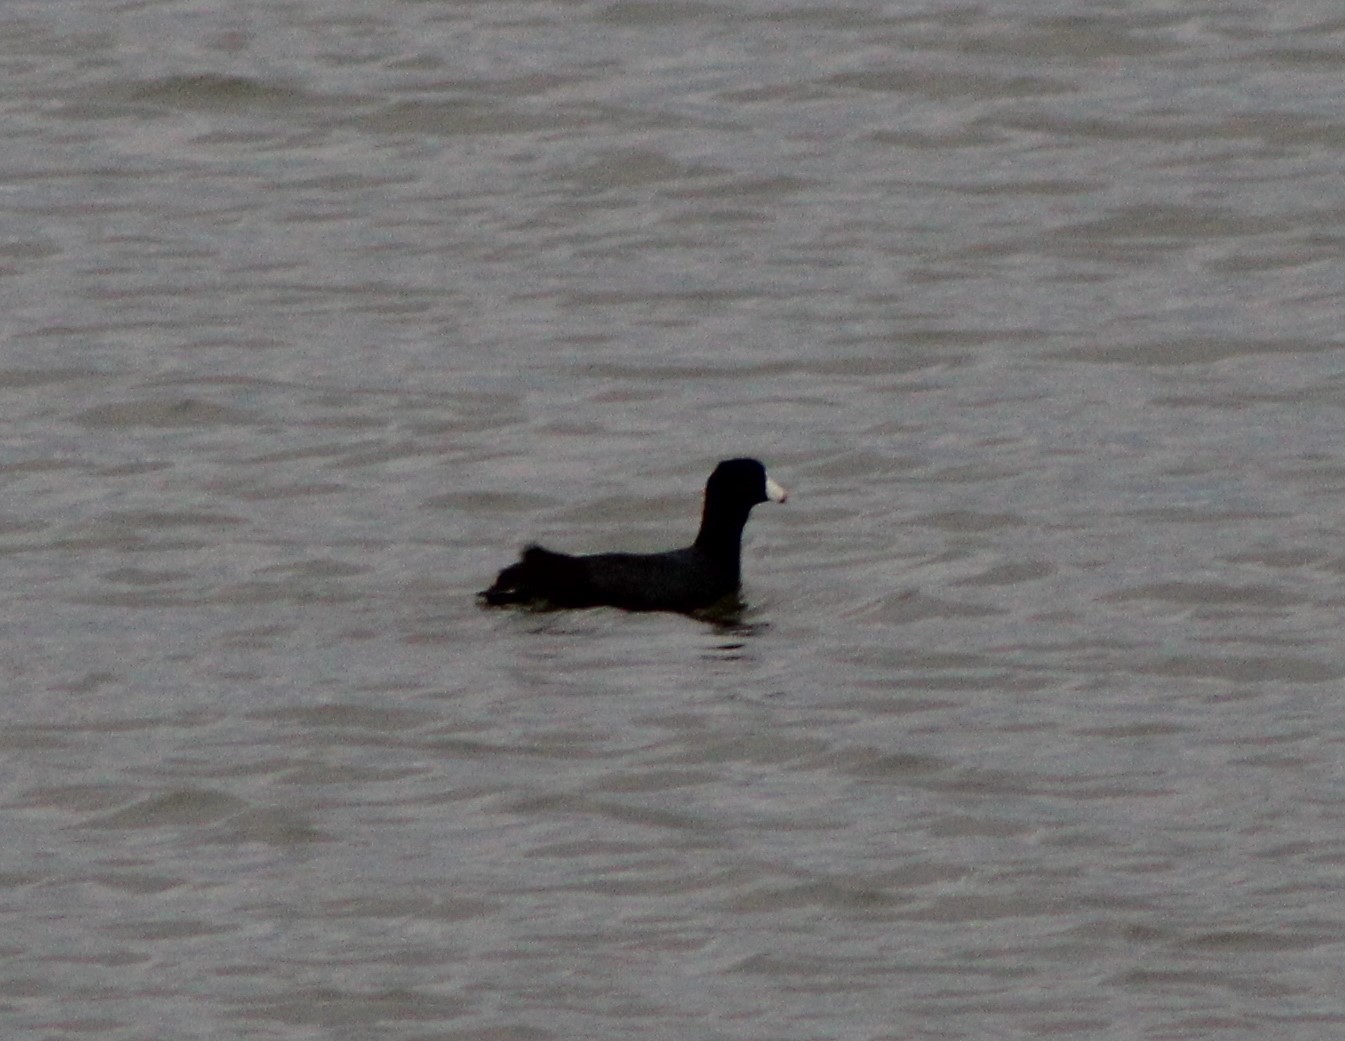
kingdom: Animalia
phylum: Chordata
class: Aves
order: Gruiformes
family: Rallidae
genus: Fulica
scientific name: Fulica americana
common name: American coot
